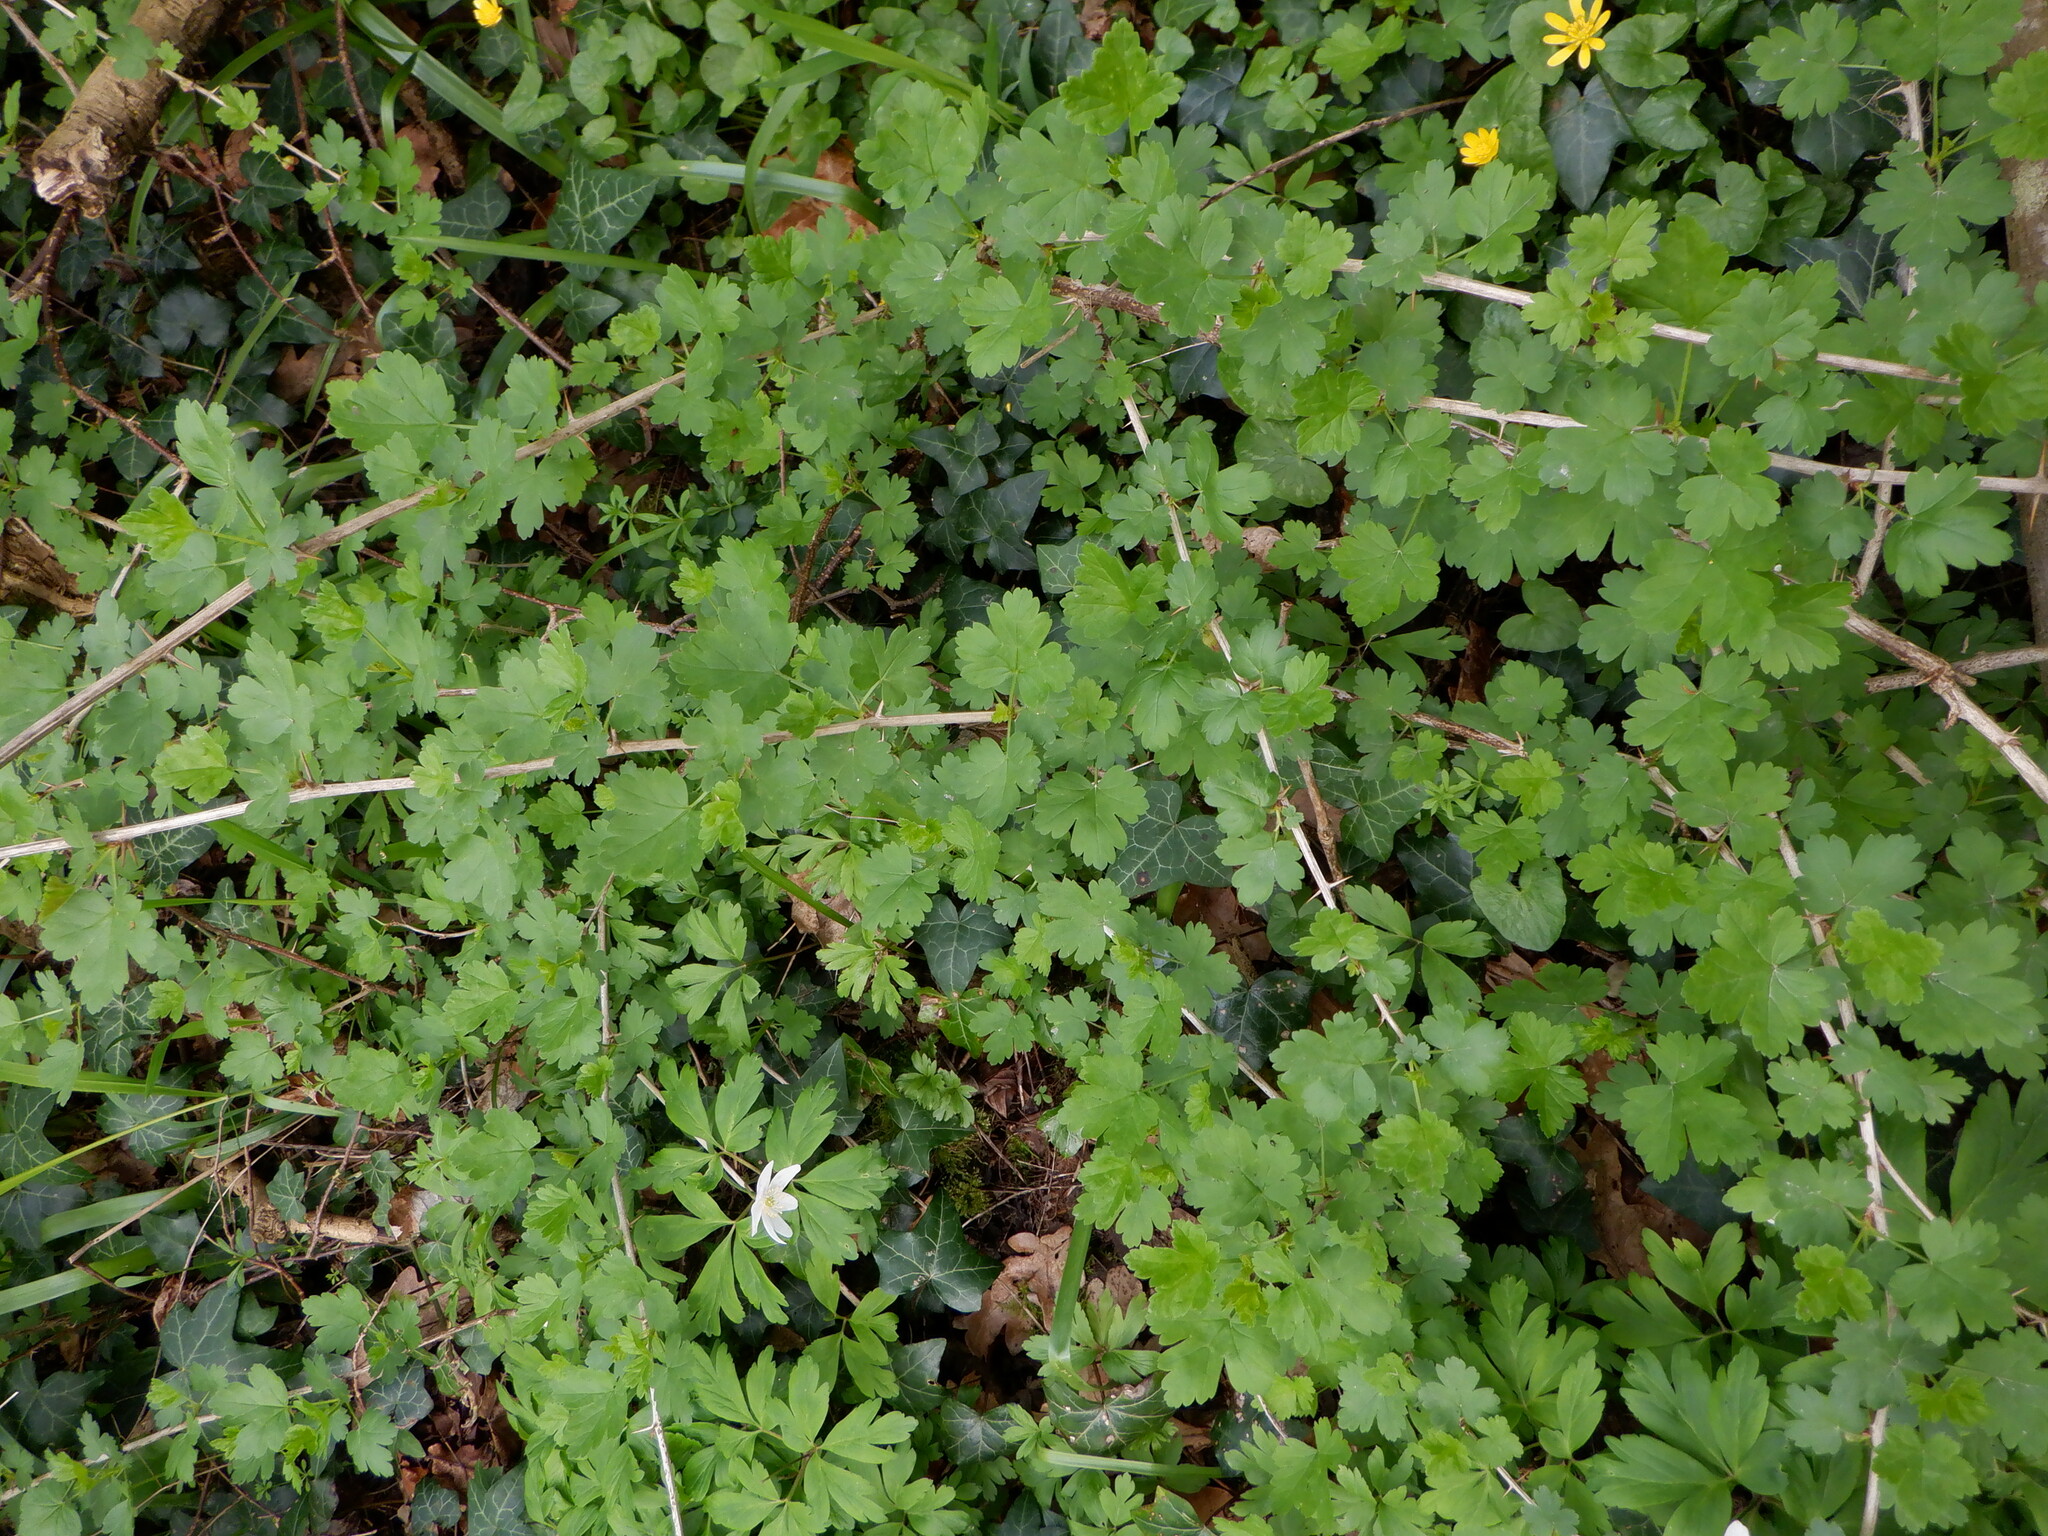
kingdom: Plantae
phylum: Tracheophyta
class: Magnoliopsida
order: Saxifragales
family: Grossulariaceae
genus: Ribes
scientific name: Ribes uva-crispa
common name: Gooseberry
